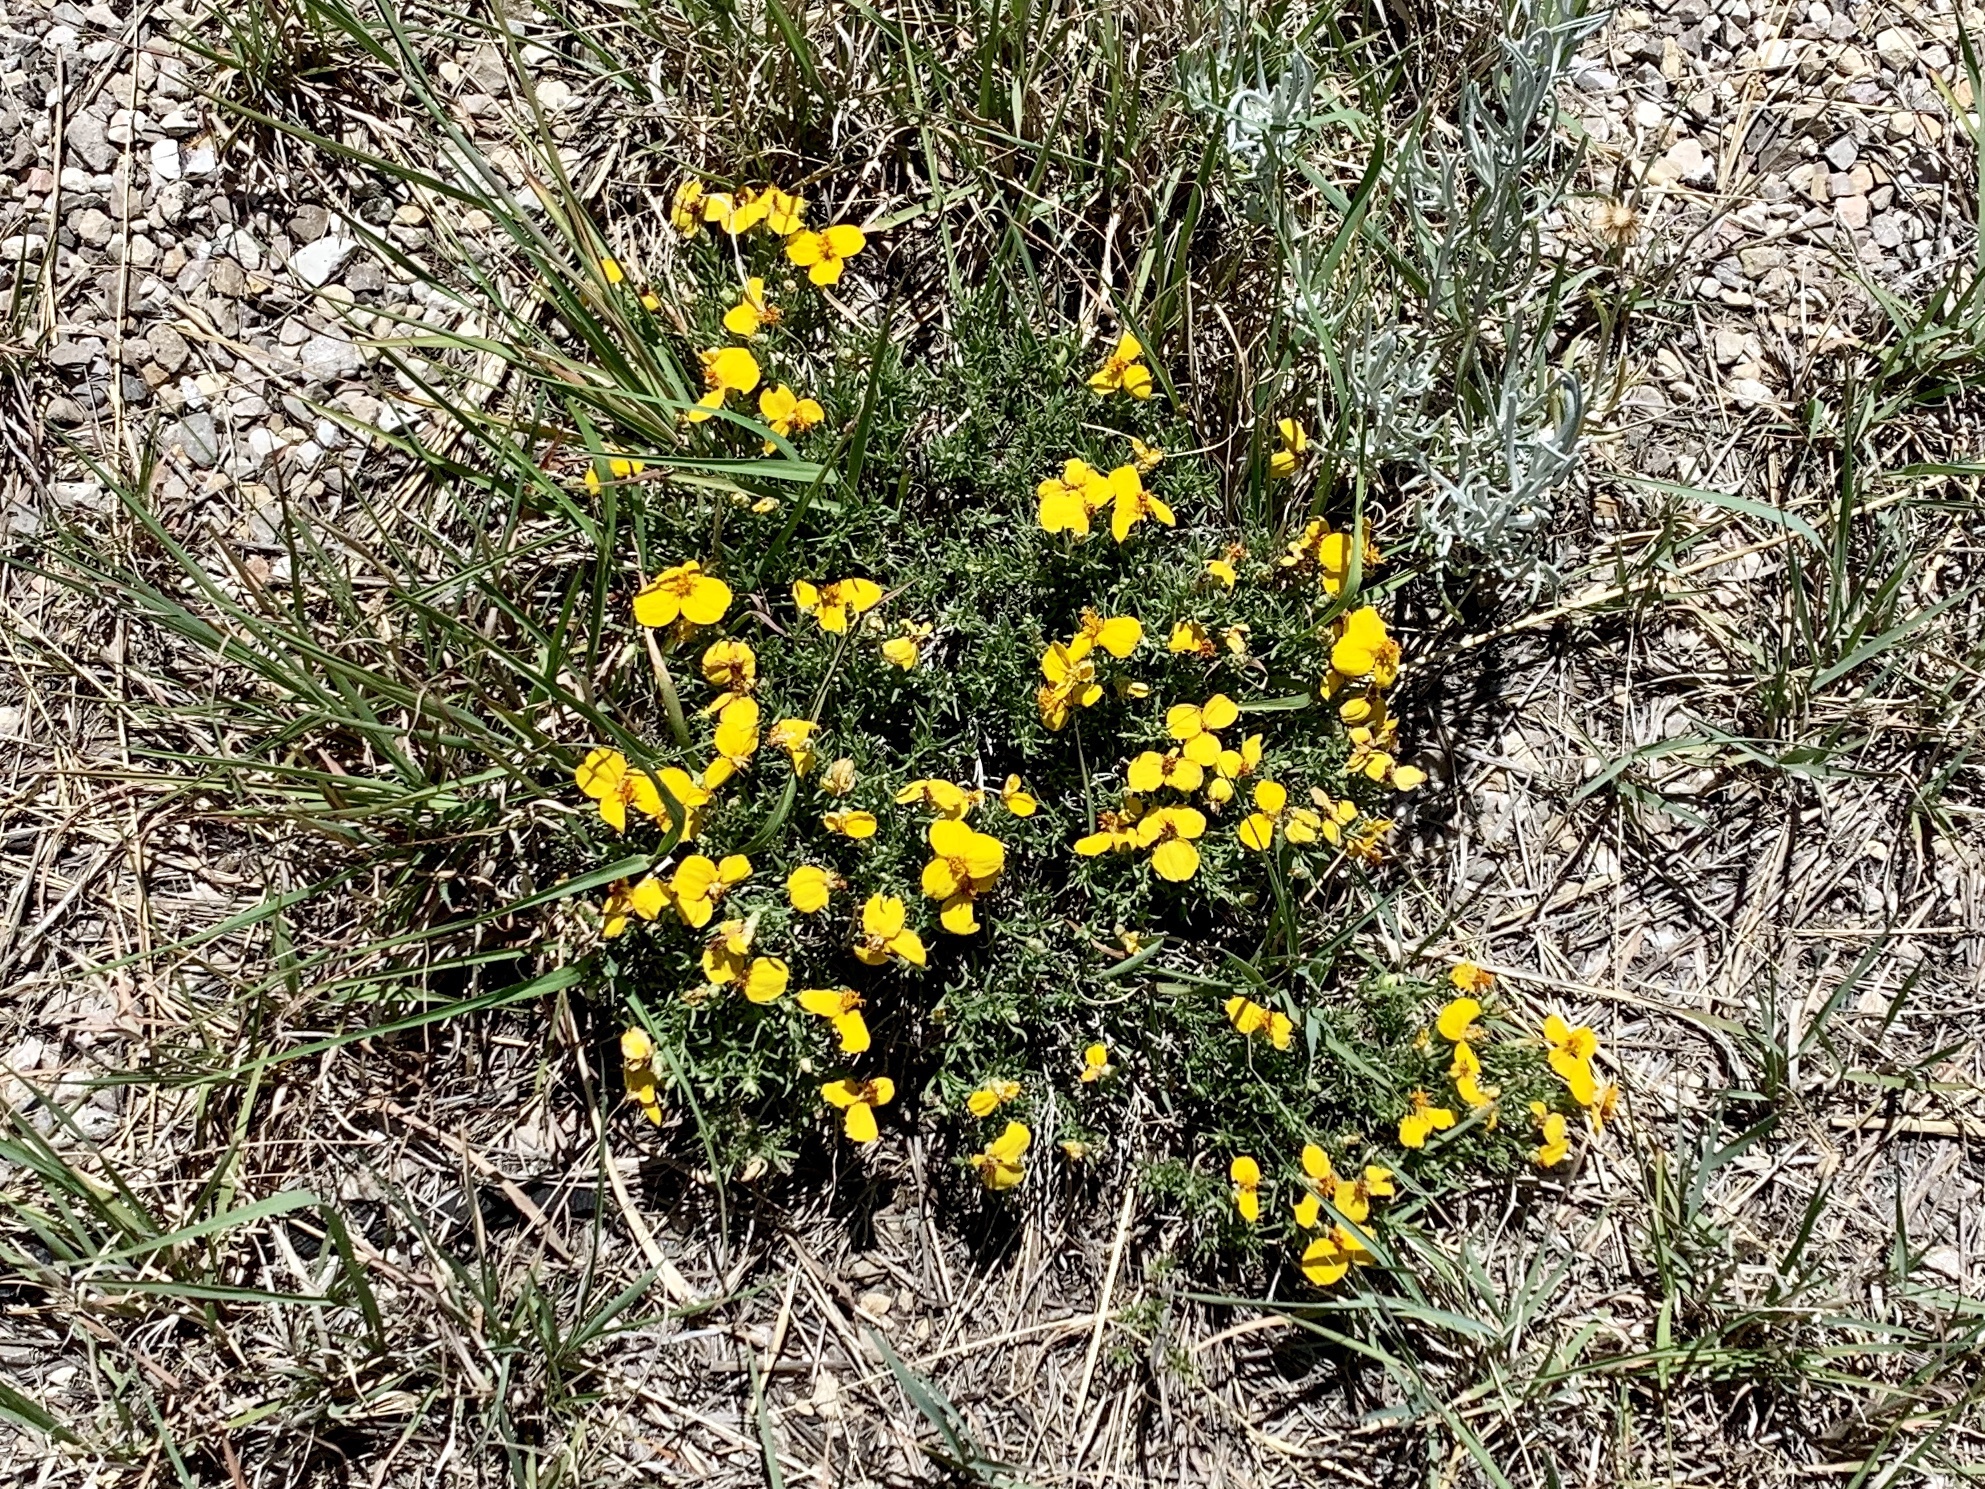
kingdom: Plantae
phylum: Tracheophyta
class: Magnoliopsida
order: Asterales
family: Asteraceae
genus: Zinnia
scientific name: Zinnia grandiflora
